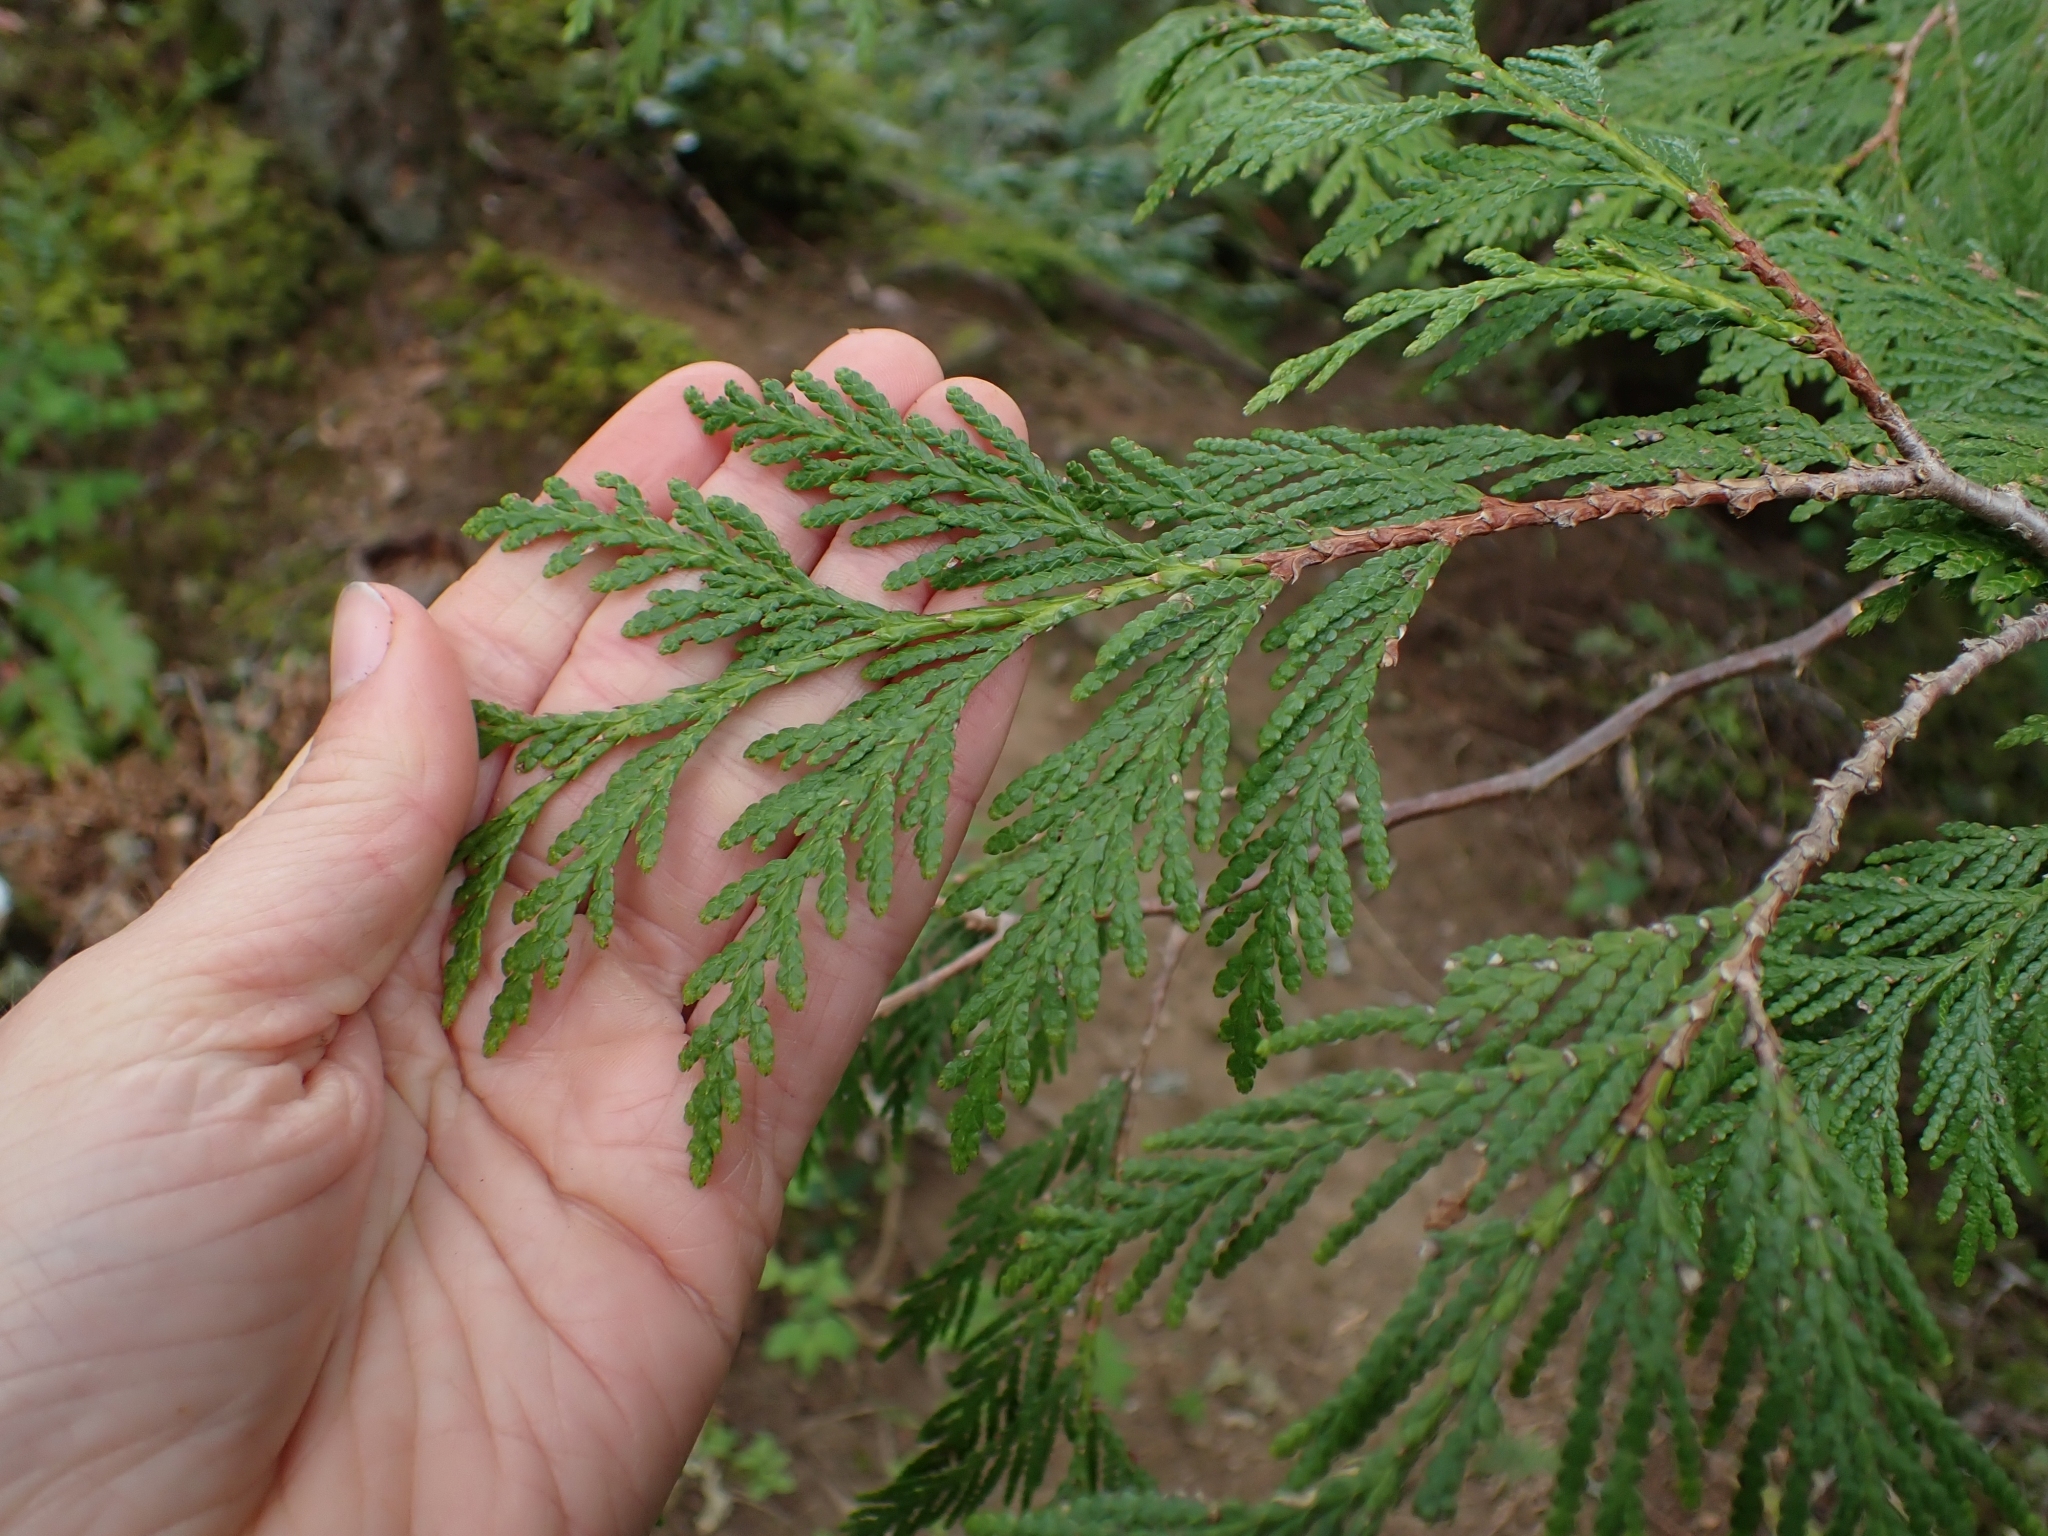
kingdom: Plantae
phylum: Tracheophyta
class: Pinopsida
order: Pinales
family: Cupressaceae
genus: Thuja
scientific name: Thuja plicata
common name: Western red-cedar
